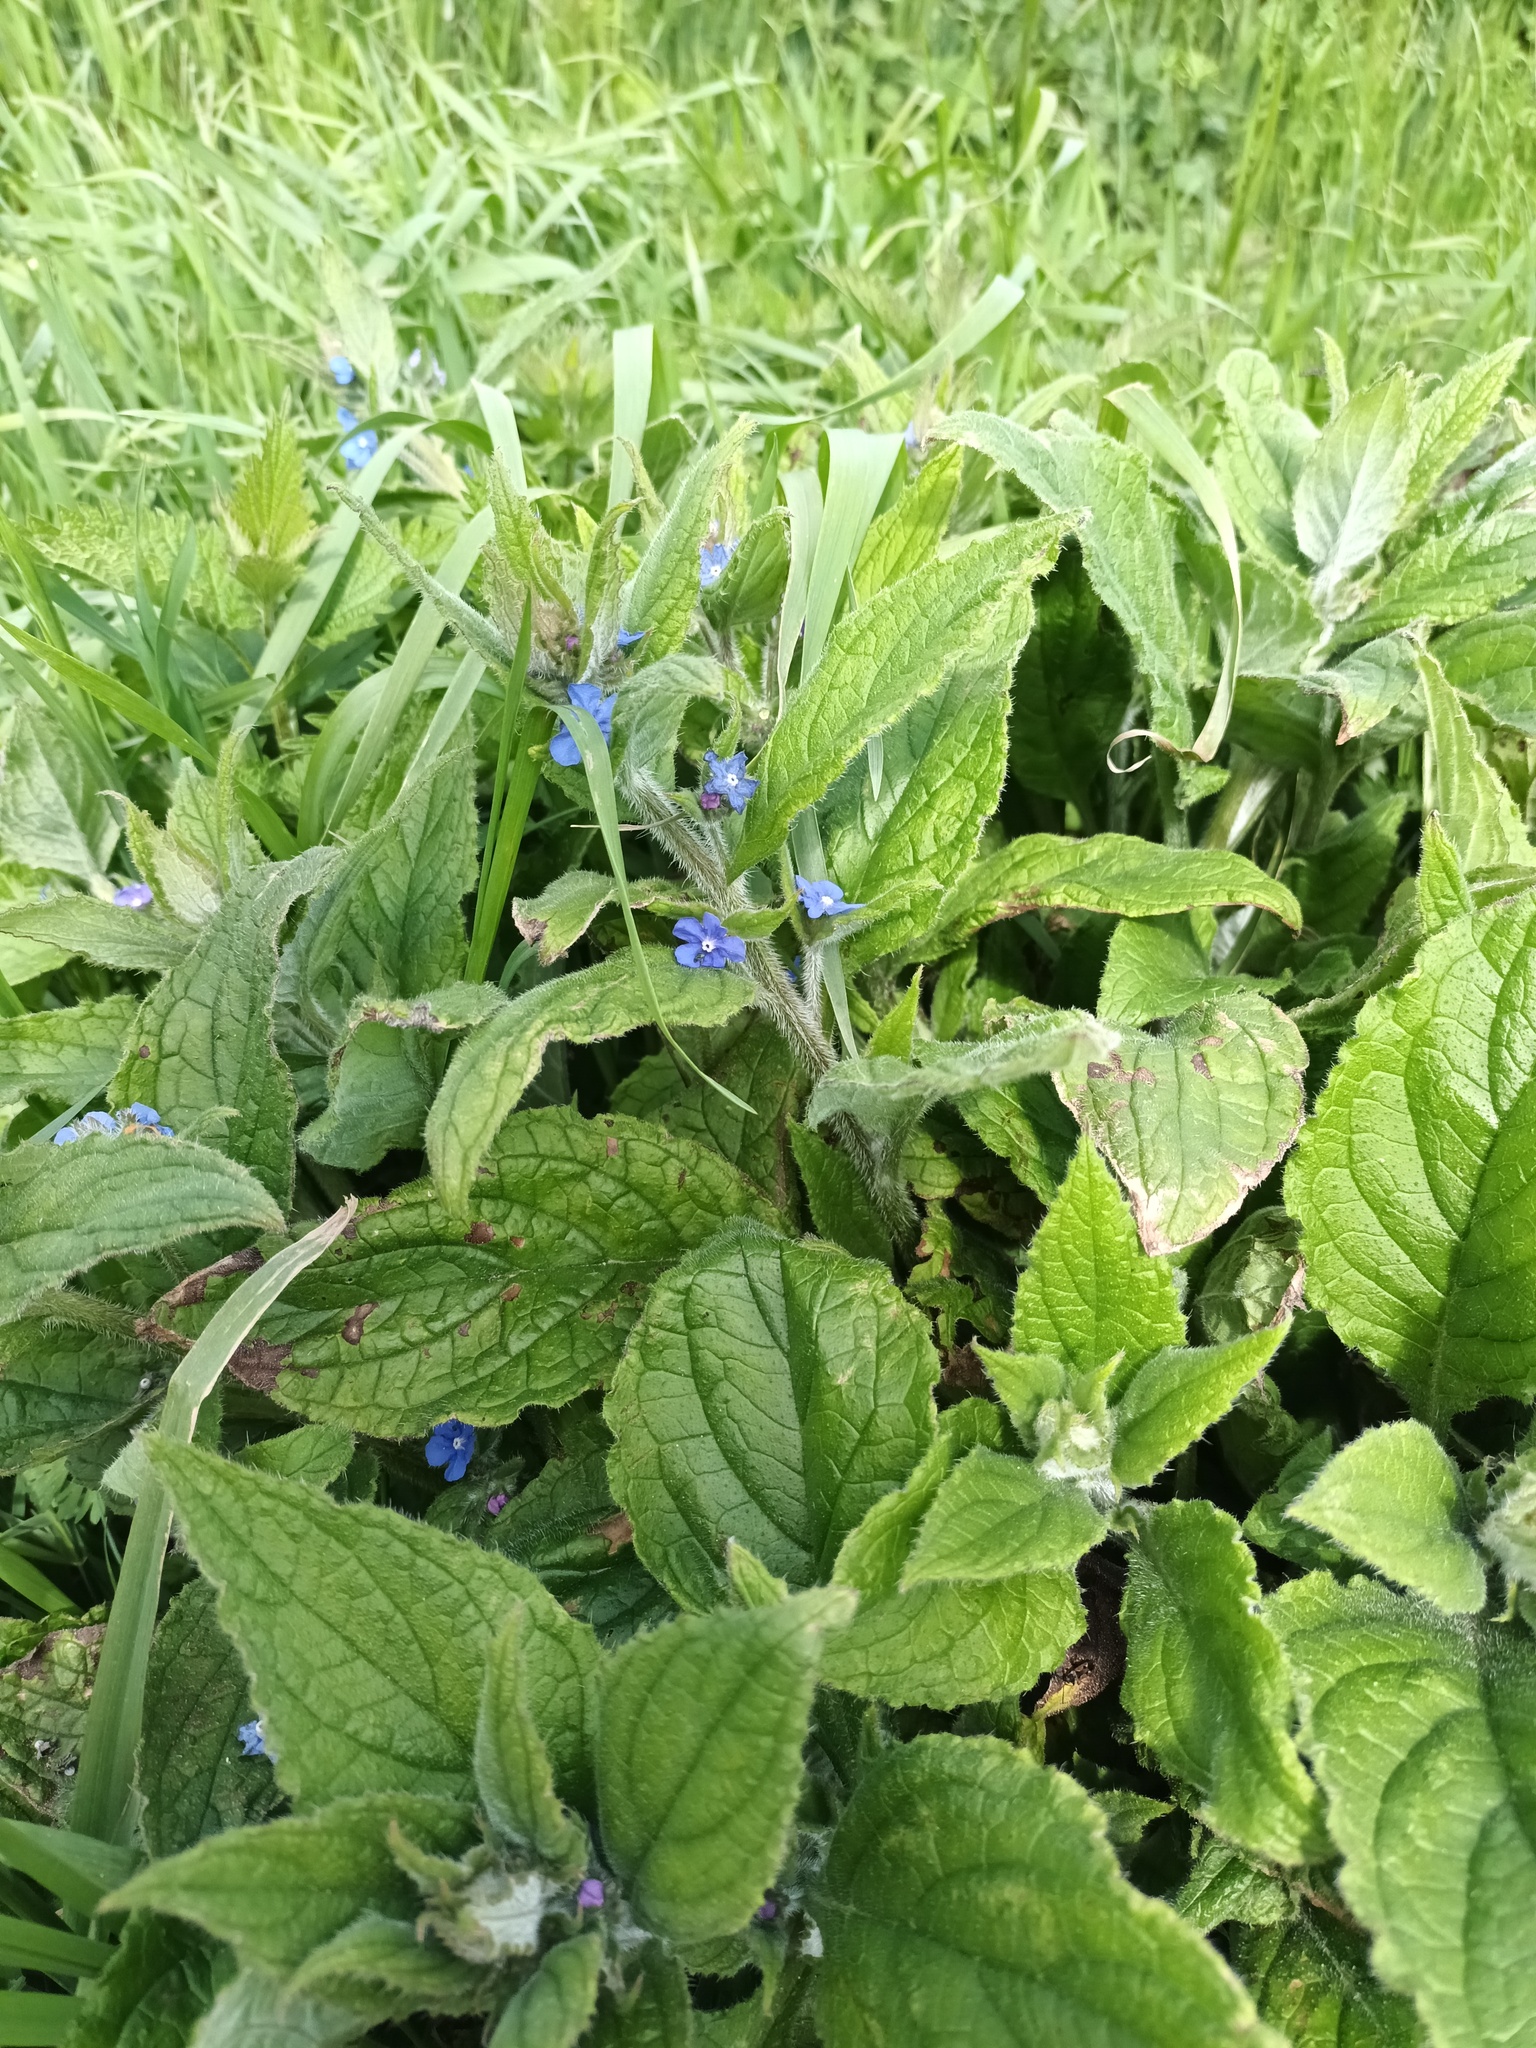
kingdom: Plantae
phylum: Tracheophyta
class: Magnoliopsida
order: Boraginales
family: Boraginaceae
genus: Pentaglottis
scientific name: Pentaglottis sempervirens
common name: Green alkanet
